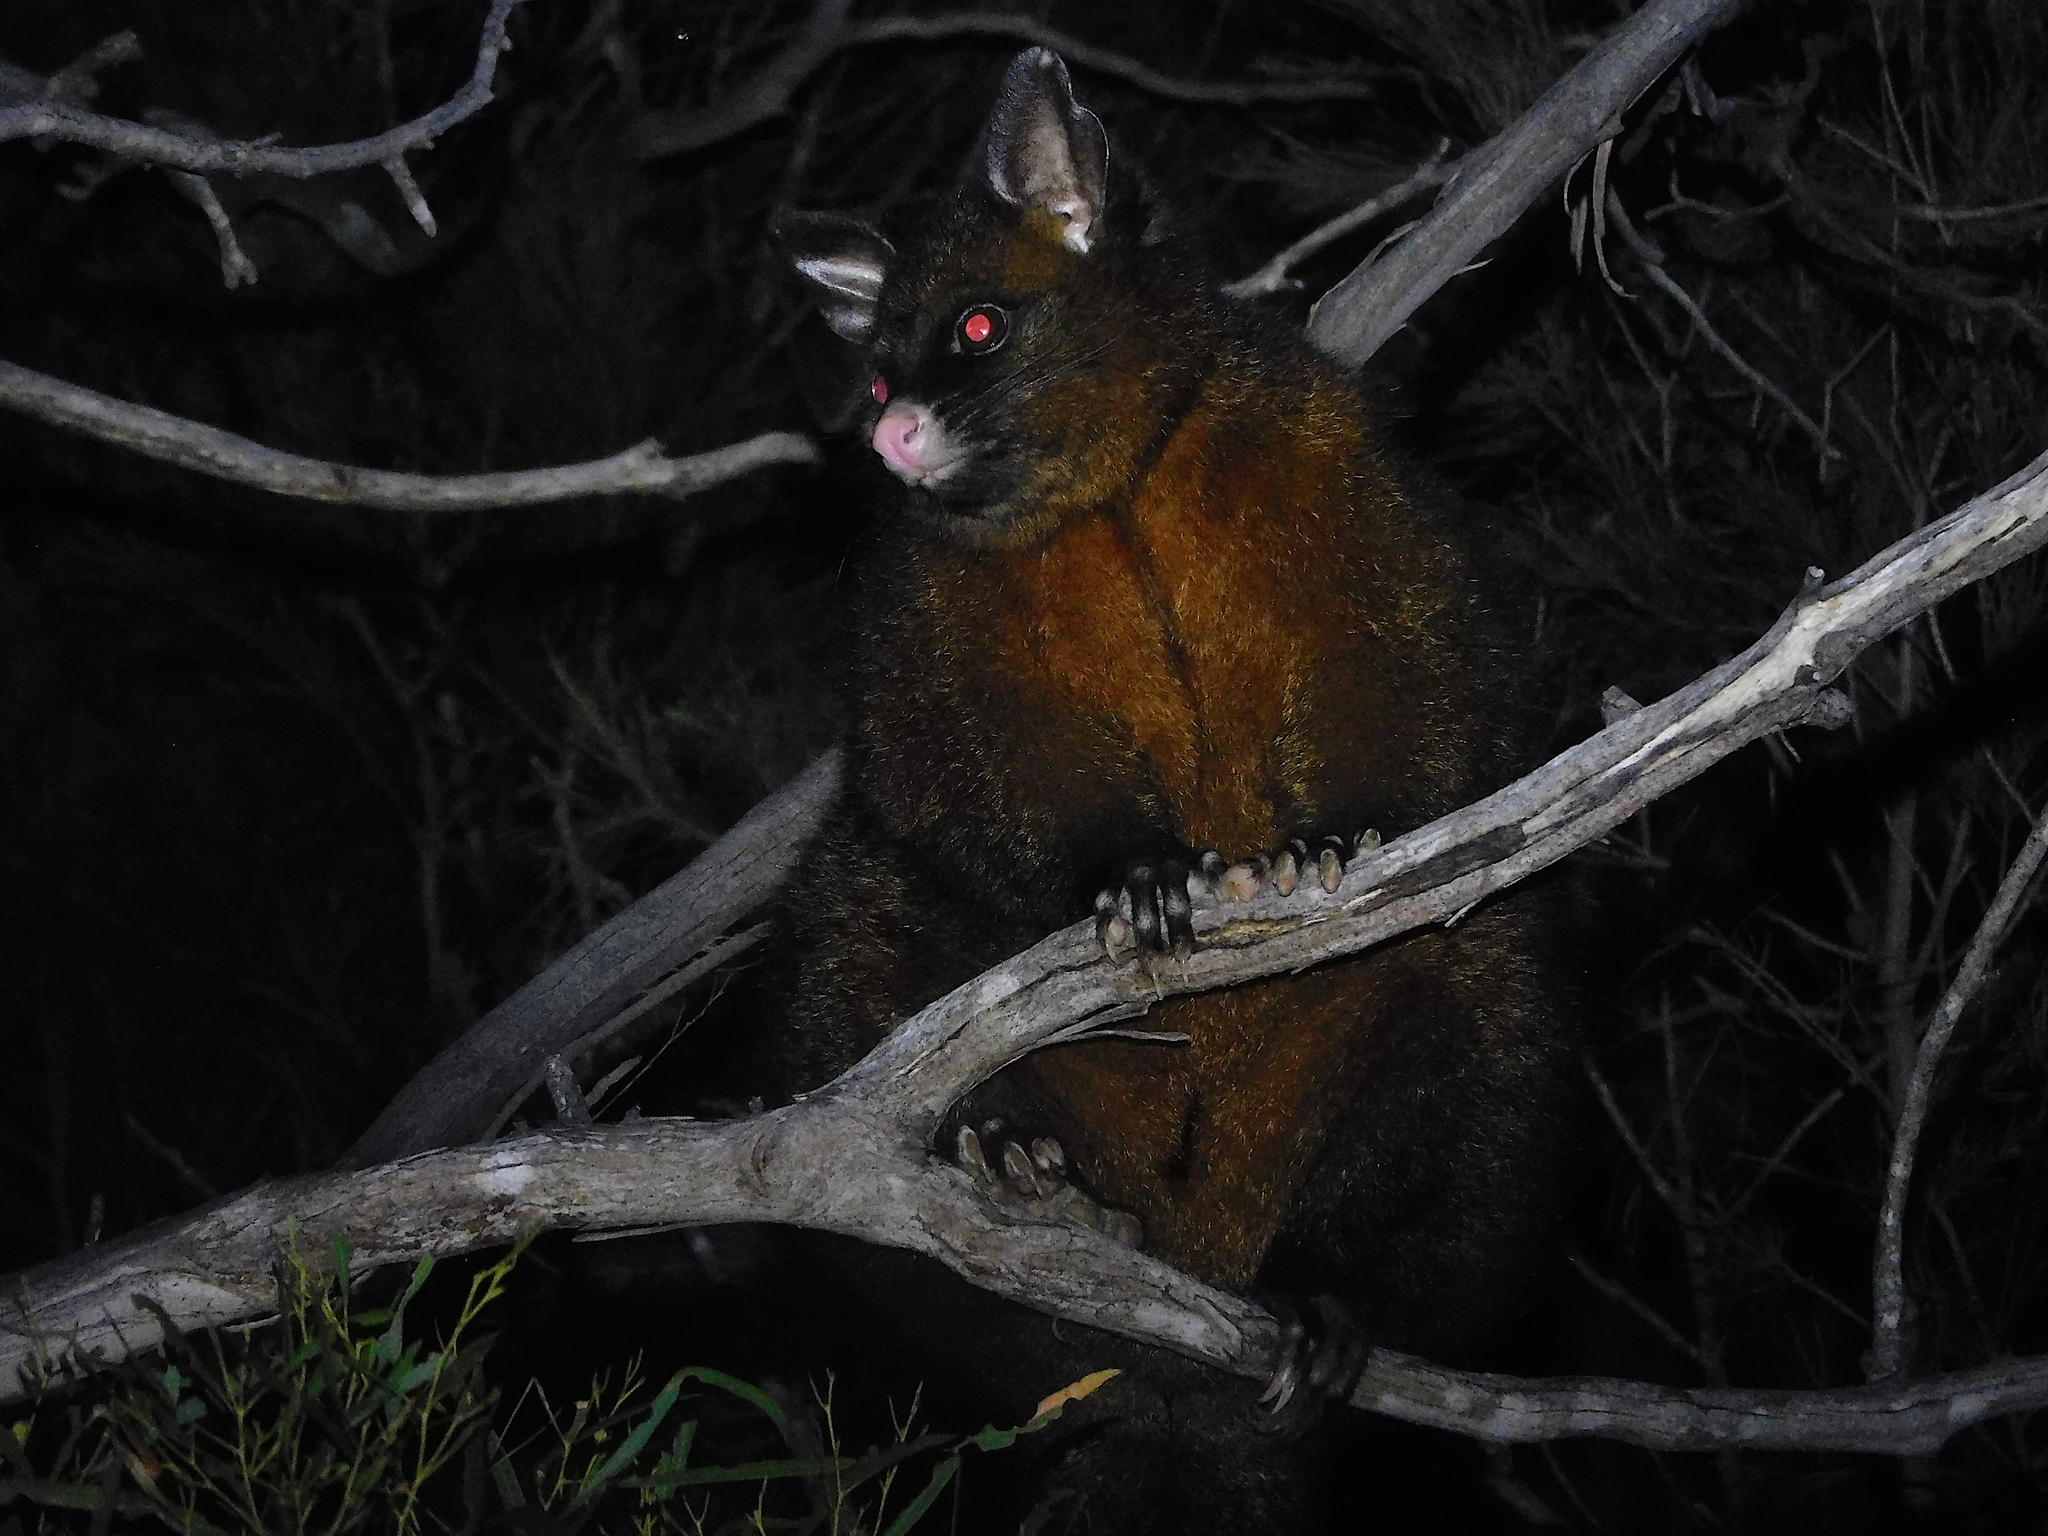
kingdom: Animalia
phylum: Chordata
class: Mammalia
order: Diprotodontia
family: Phalangeridae
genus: Trichosurus
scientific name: Trichosurus vulpecula
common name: Common brushtail
